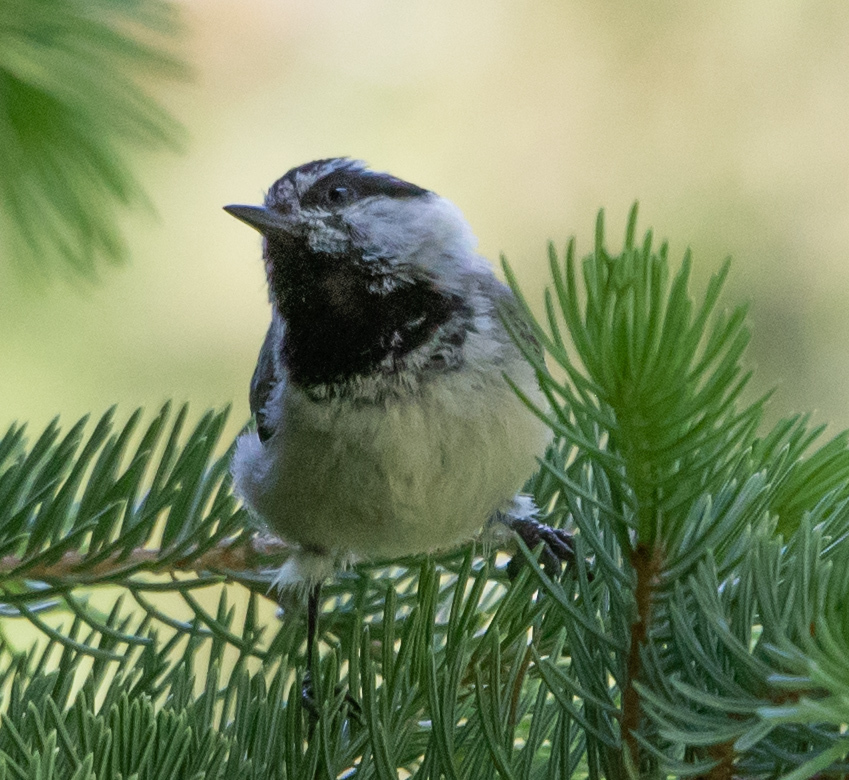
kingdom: Animalia
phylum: Chordata
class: Aves
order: Passeriformes
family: Paridae
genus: Poecile
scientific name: Poecile gambeli
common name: Mountain chickadee
